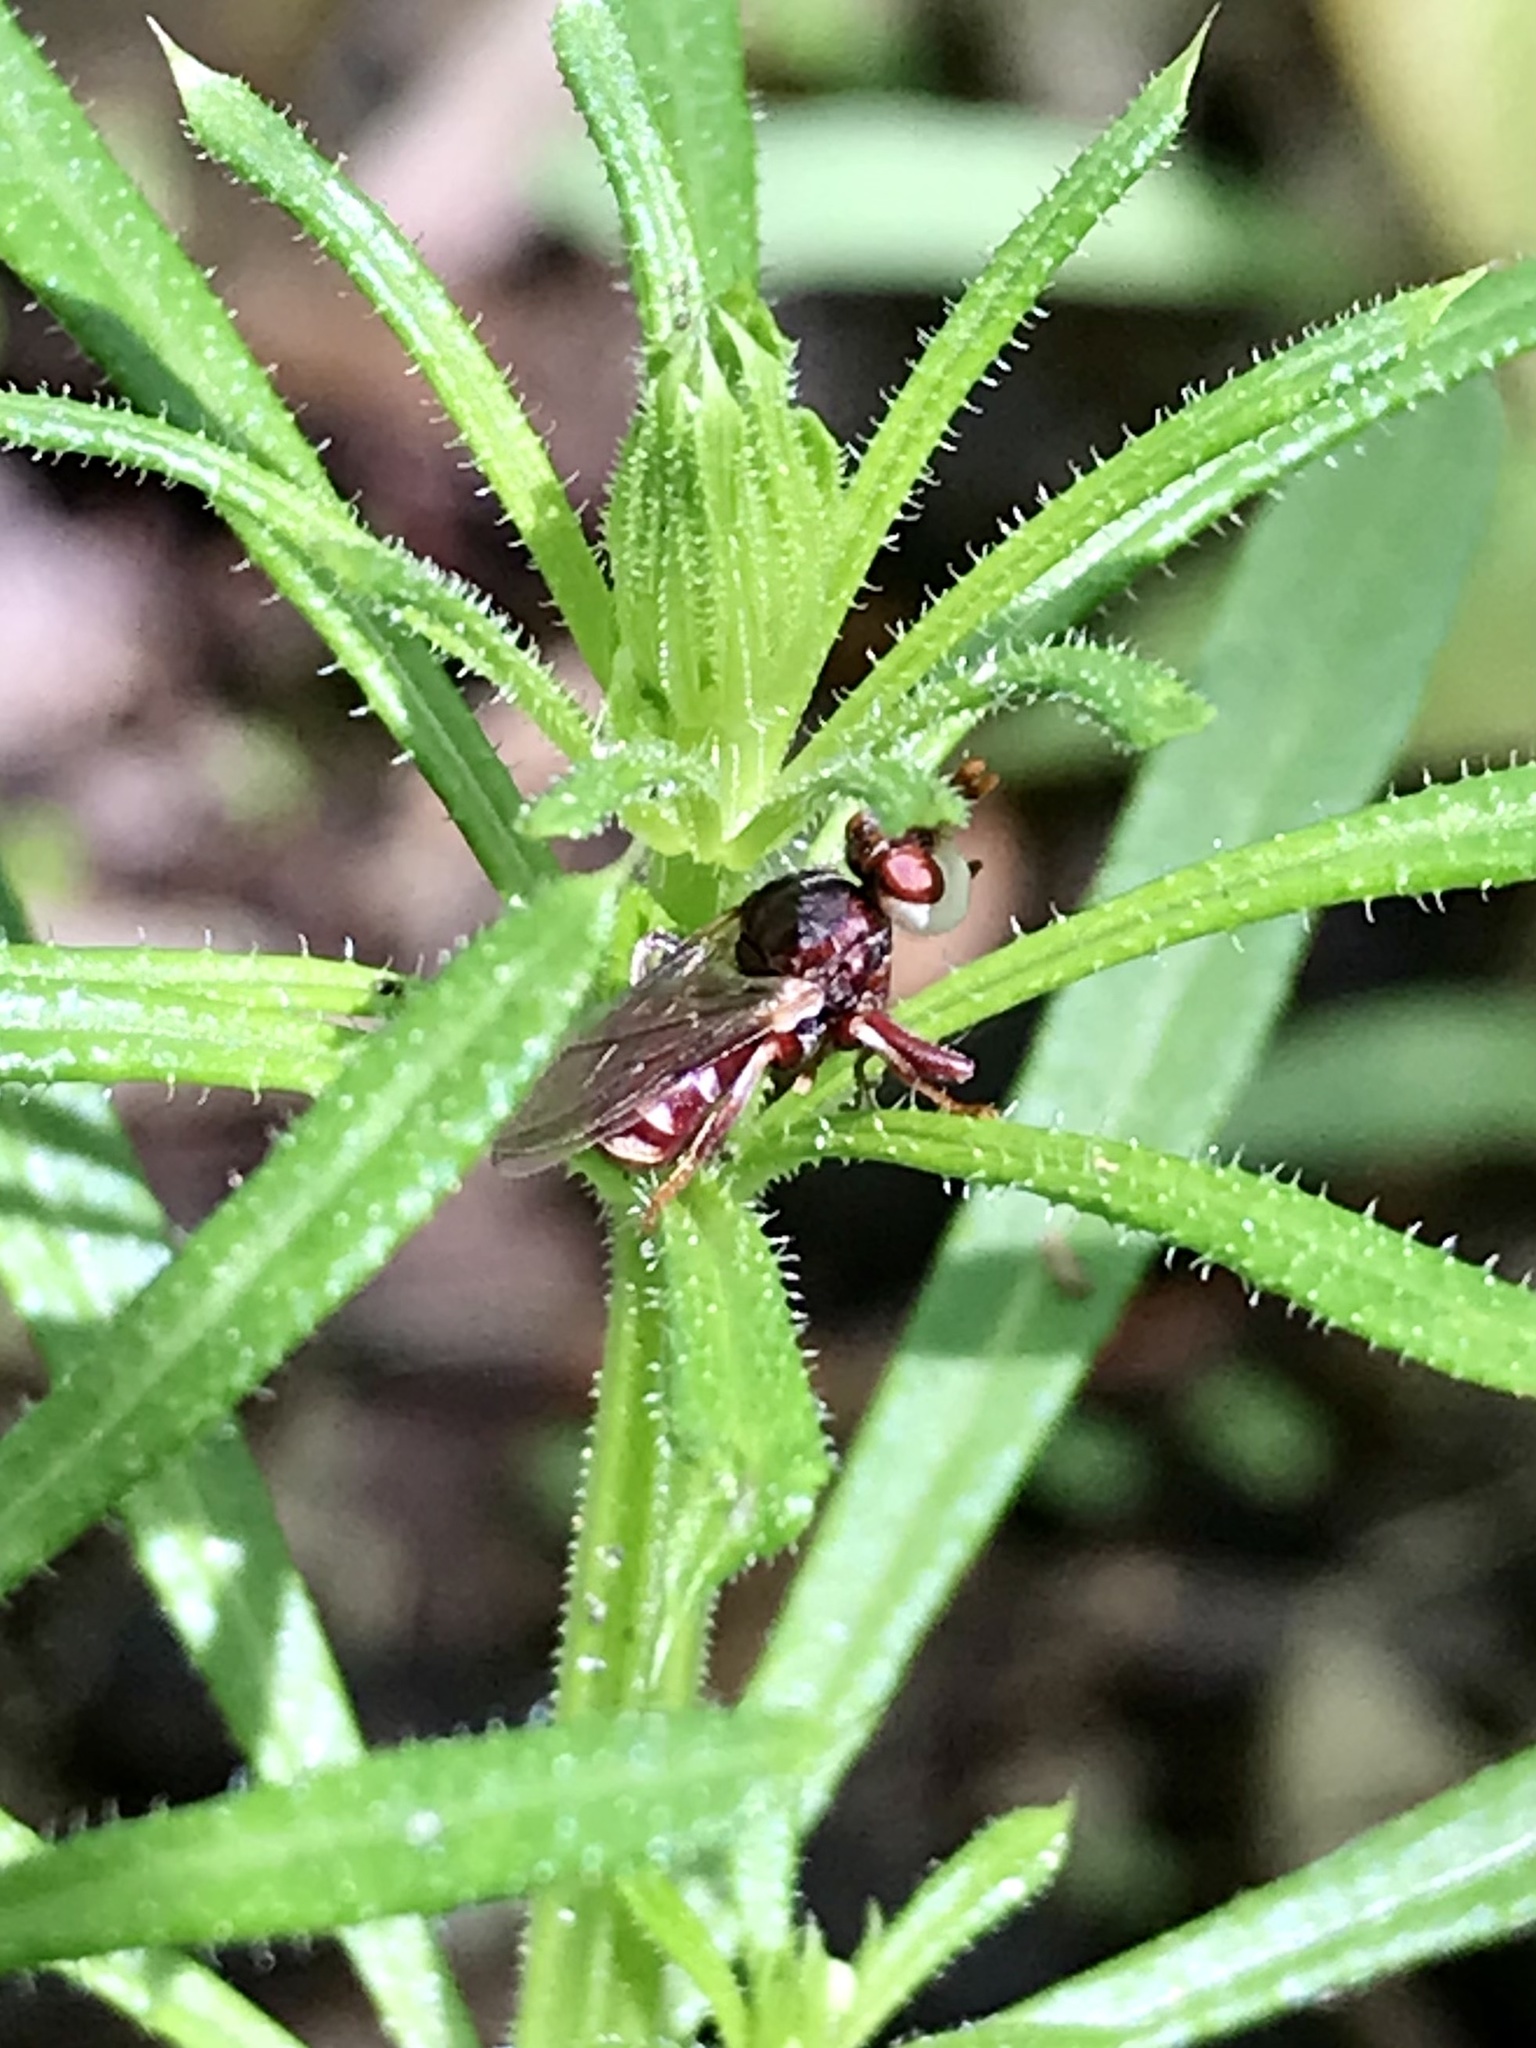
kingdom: Animalia
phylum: Arthropoda
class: Insecta
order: Diptera
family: Conopidae
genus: Myopa
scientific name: Myopa clausa
